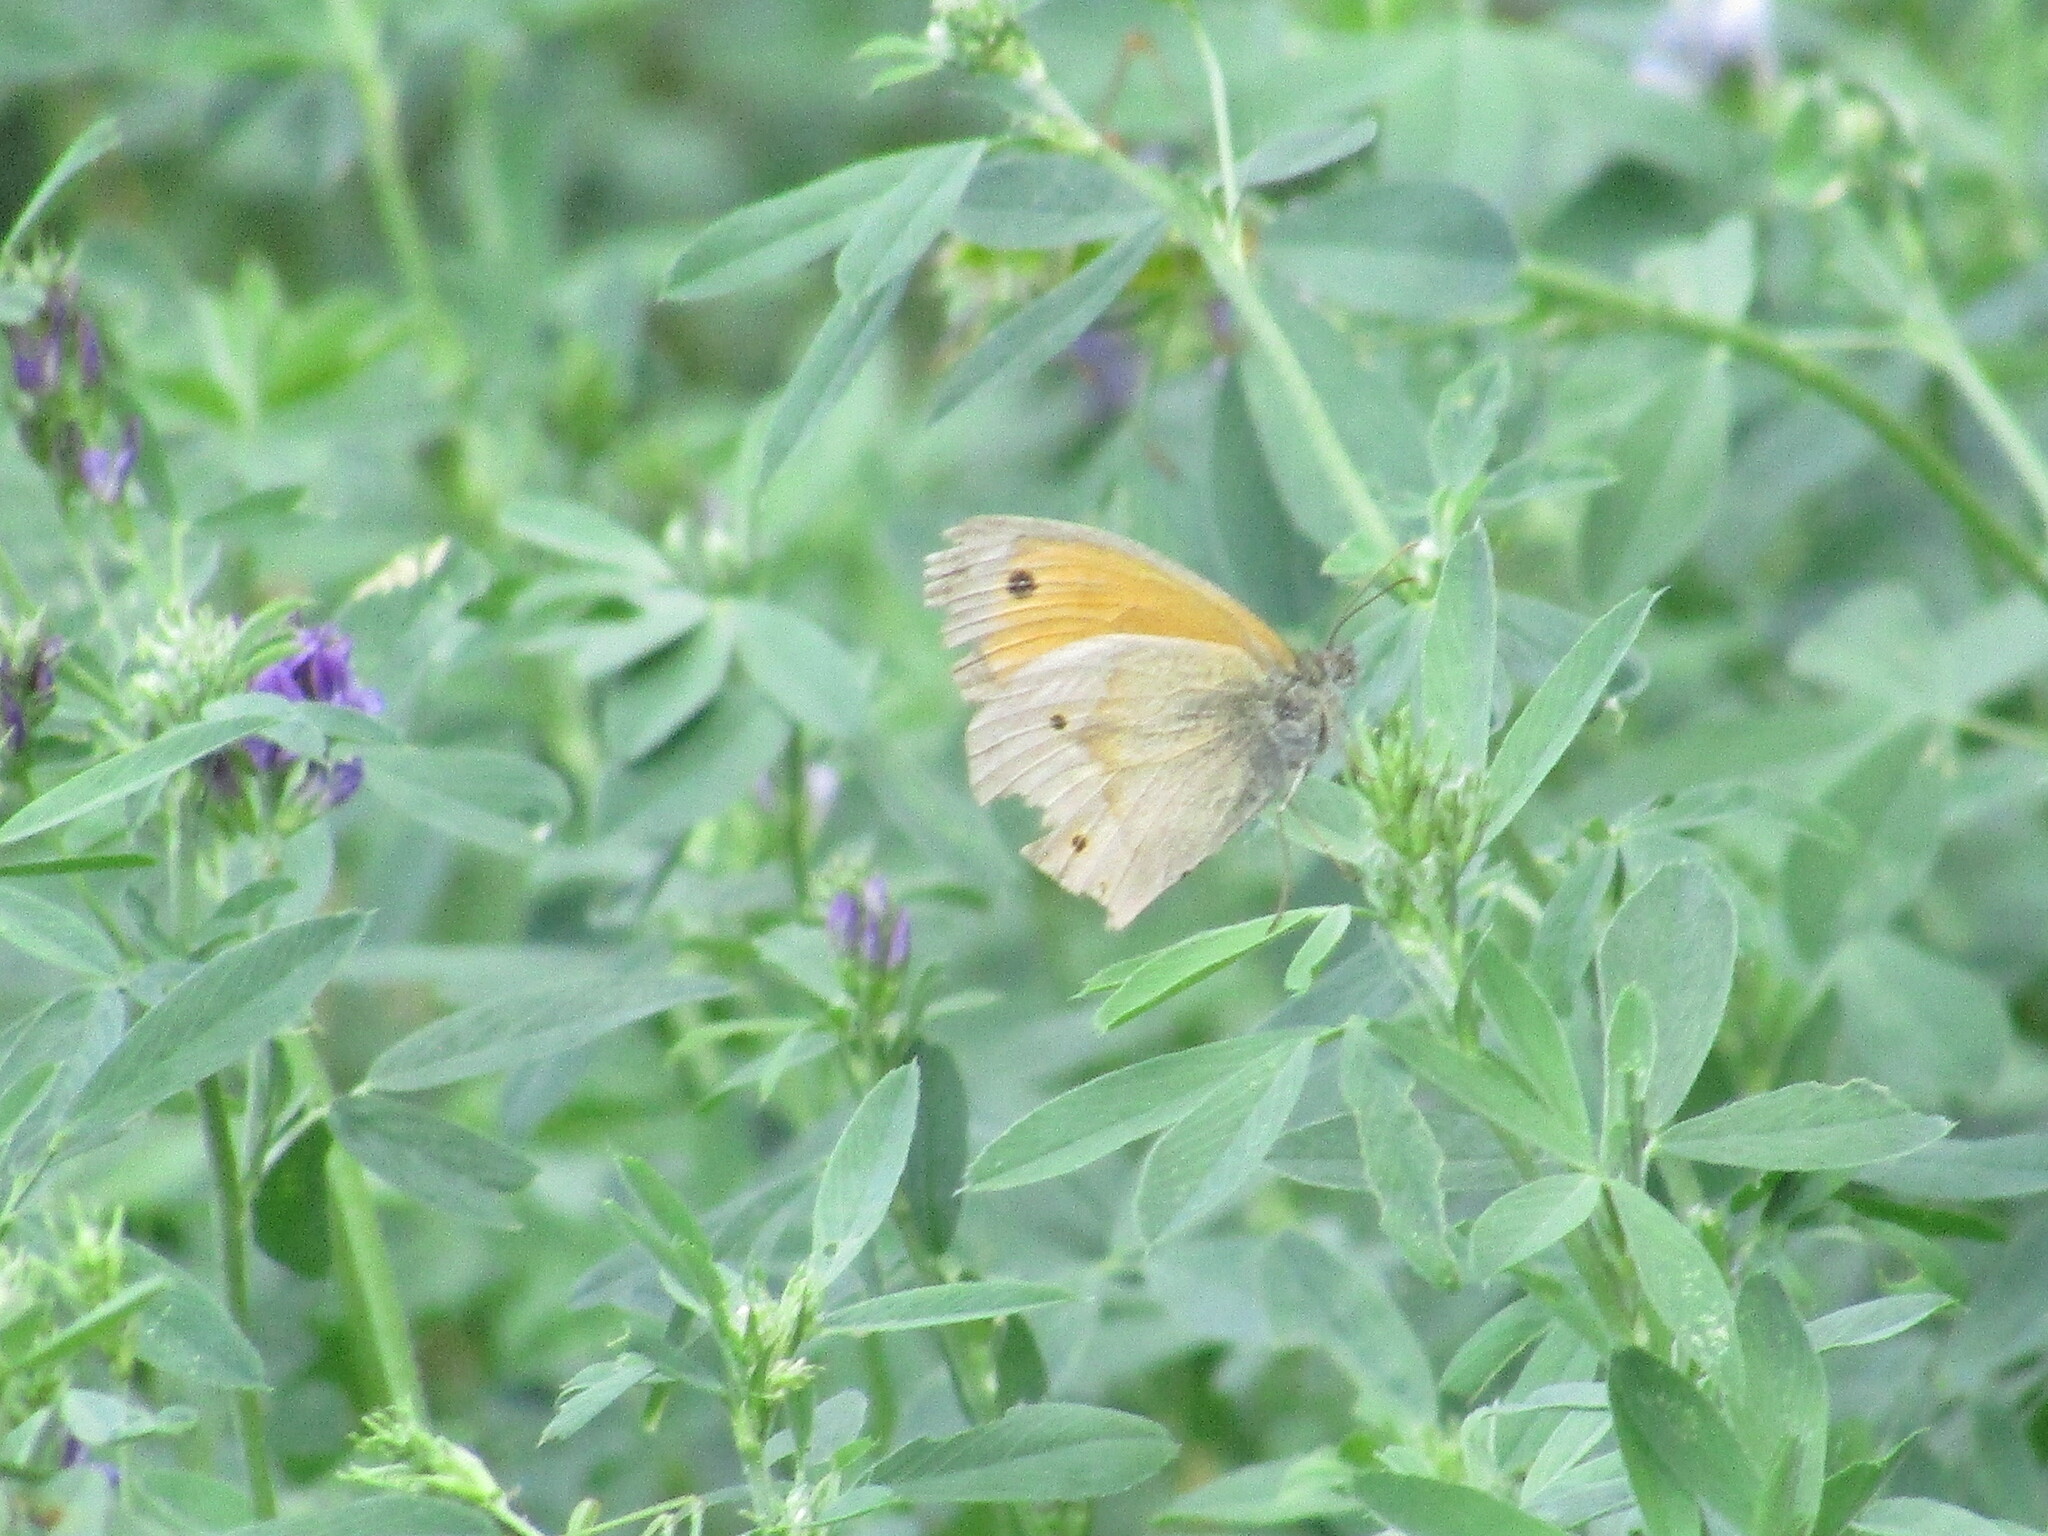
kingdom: Animalia
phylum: Arthropoda
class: Insecta
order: Lepidoptera
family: Nymphalidae
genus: Maniola
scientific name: Maniola jurtina
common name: Meadow brown
